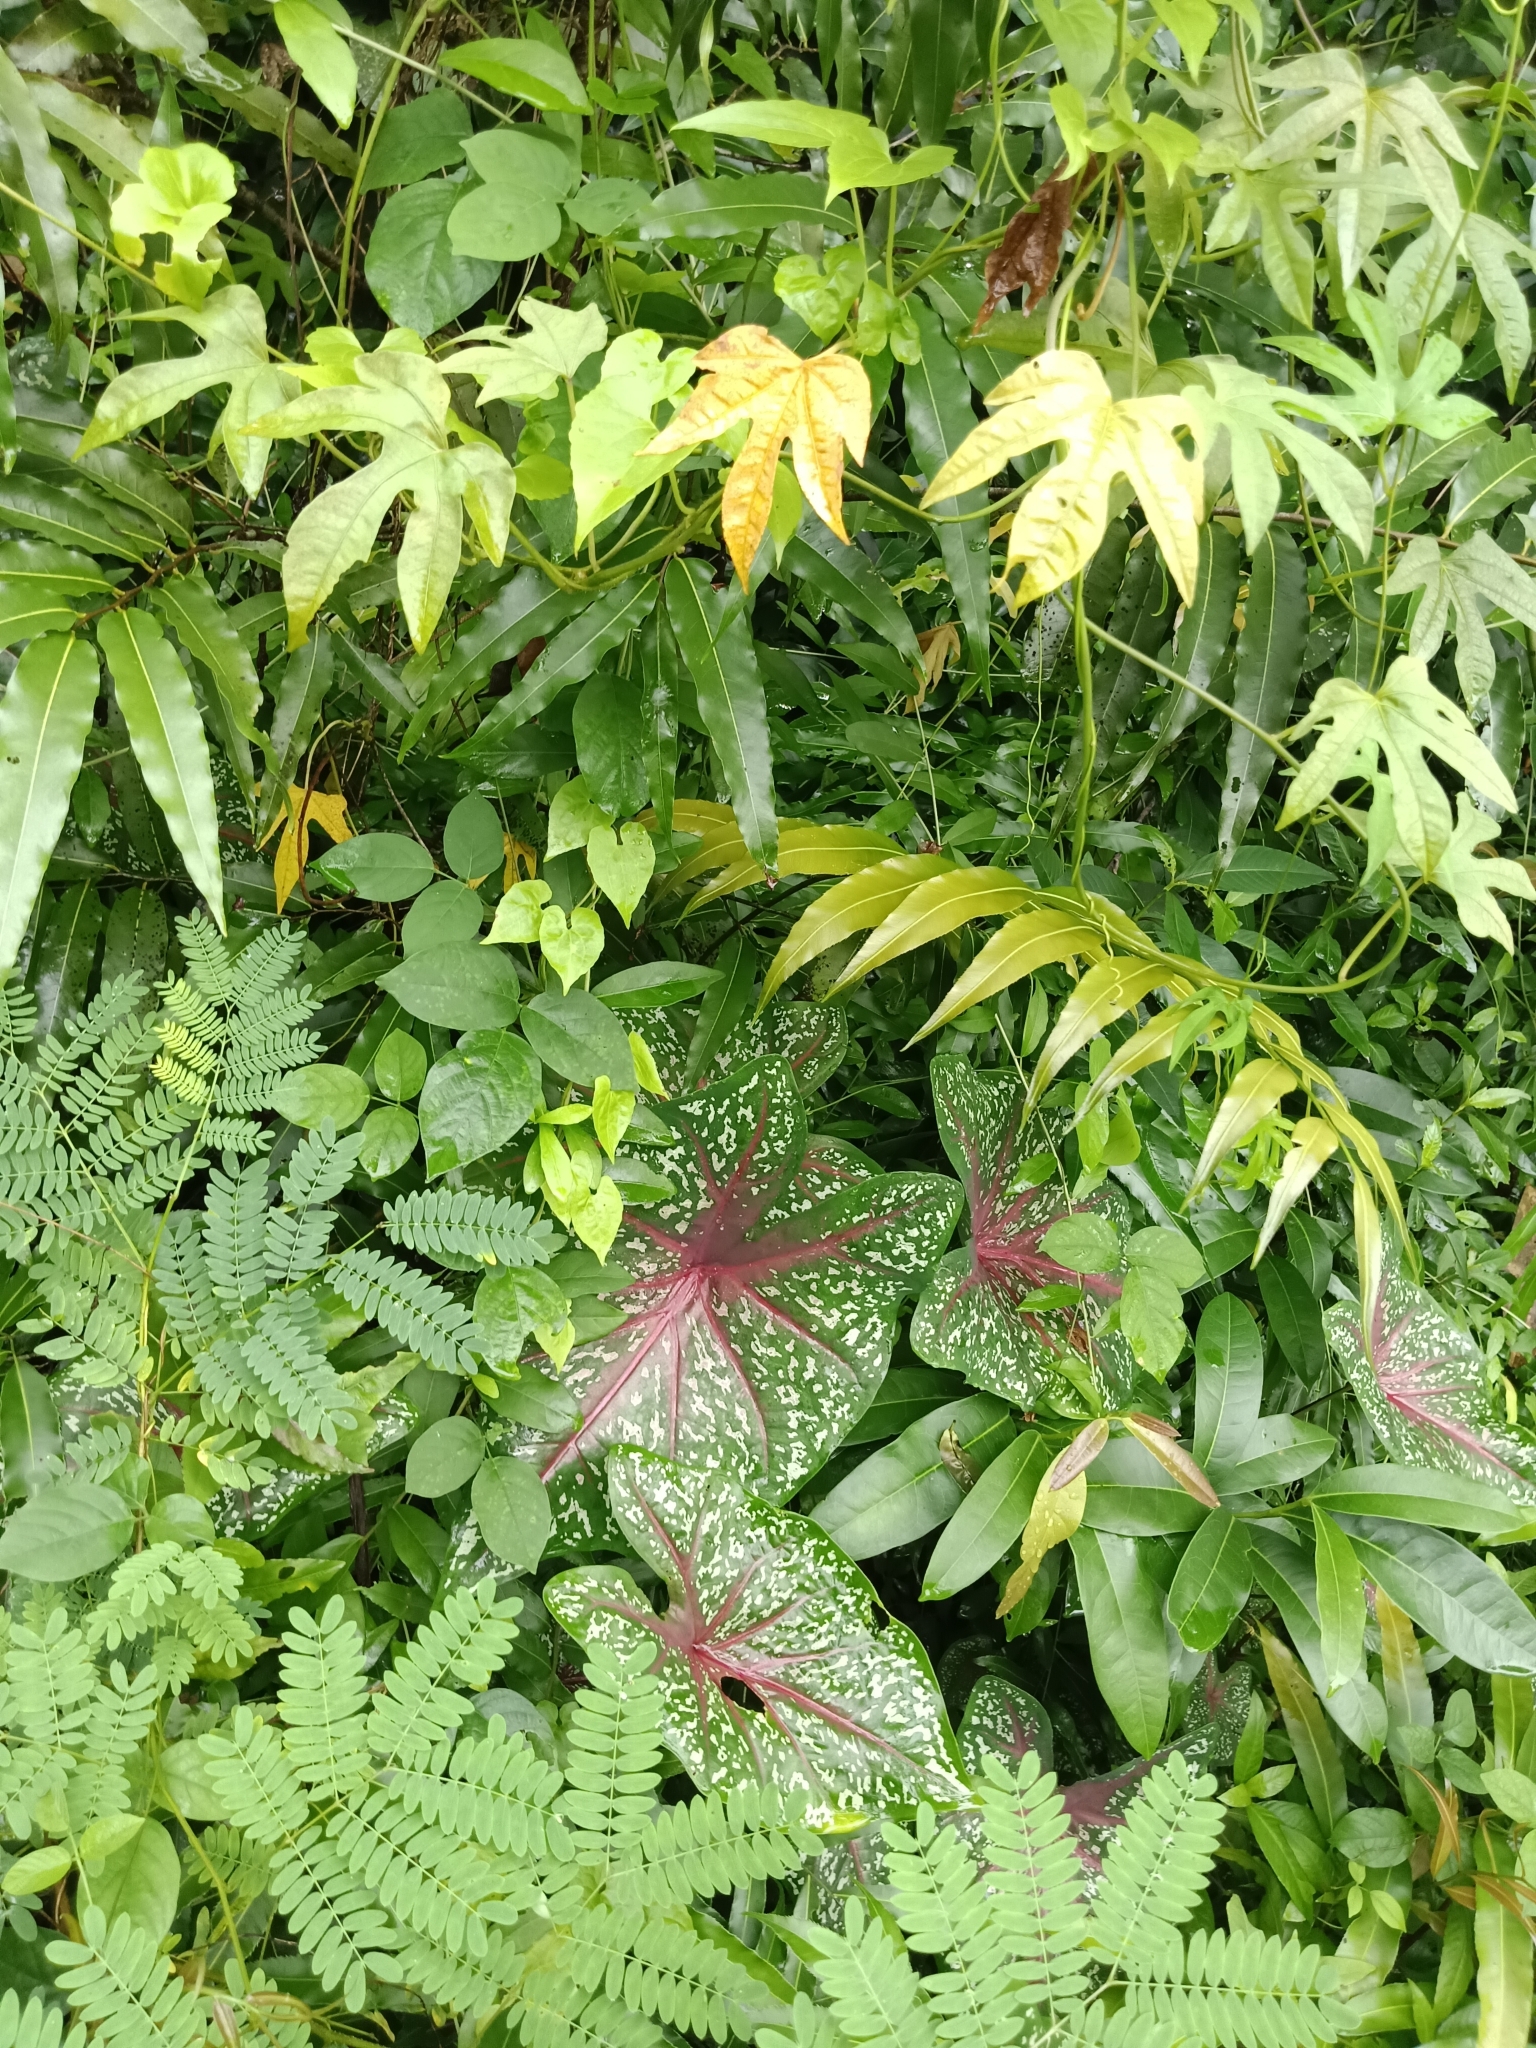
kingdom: Plantae
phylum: Tracheophyta
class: Liliopsida
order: Alismatales
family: Araceae
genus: Caladium
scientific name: Caladium bicolor
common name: Artist's pallet
